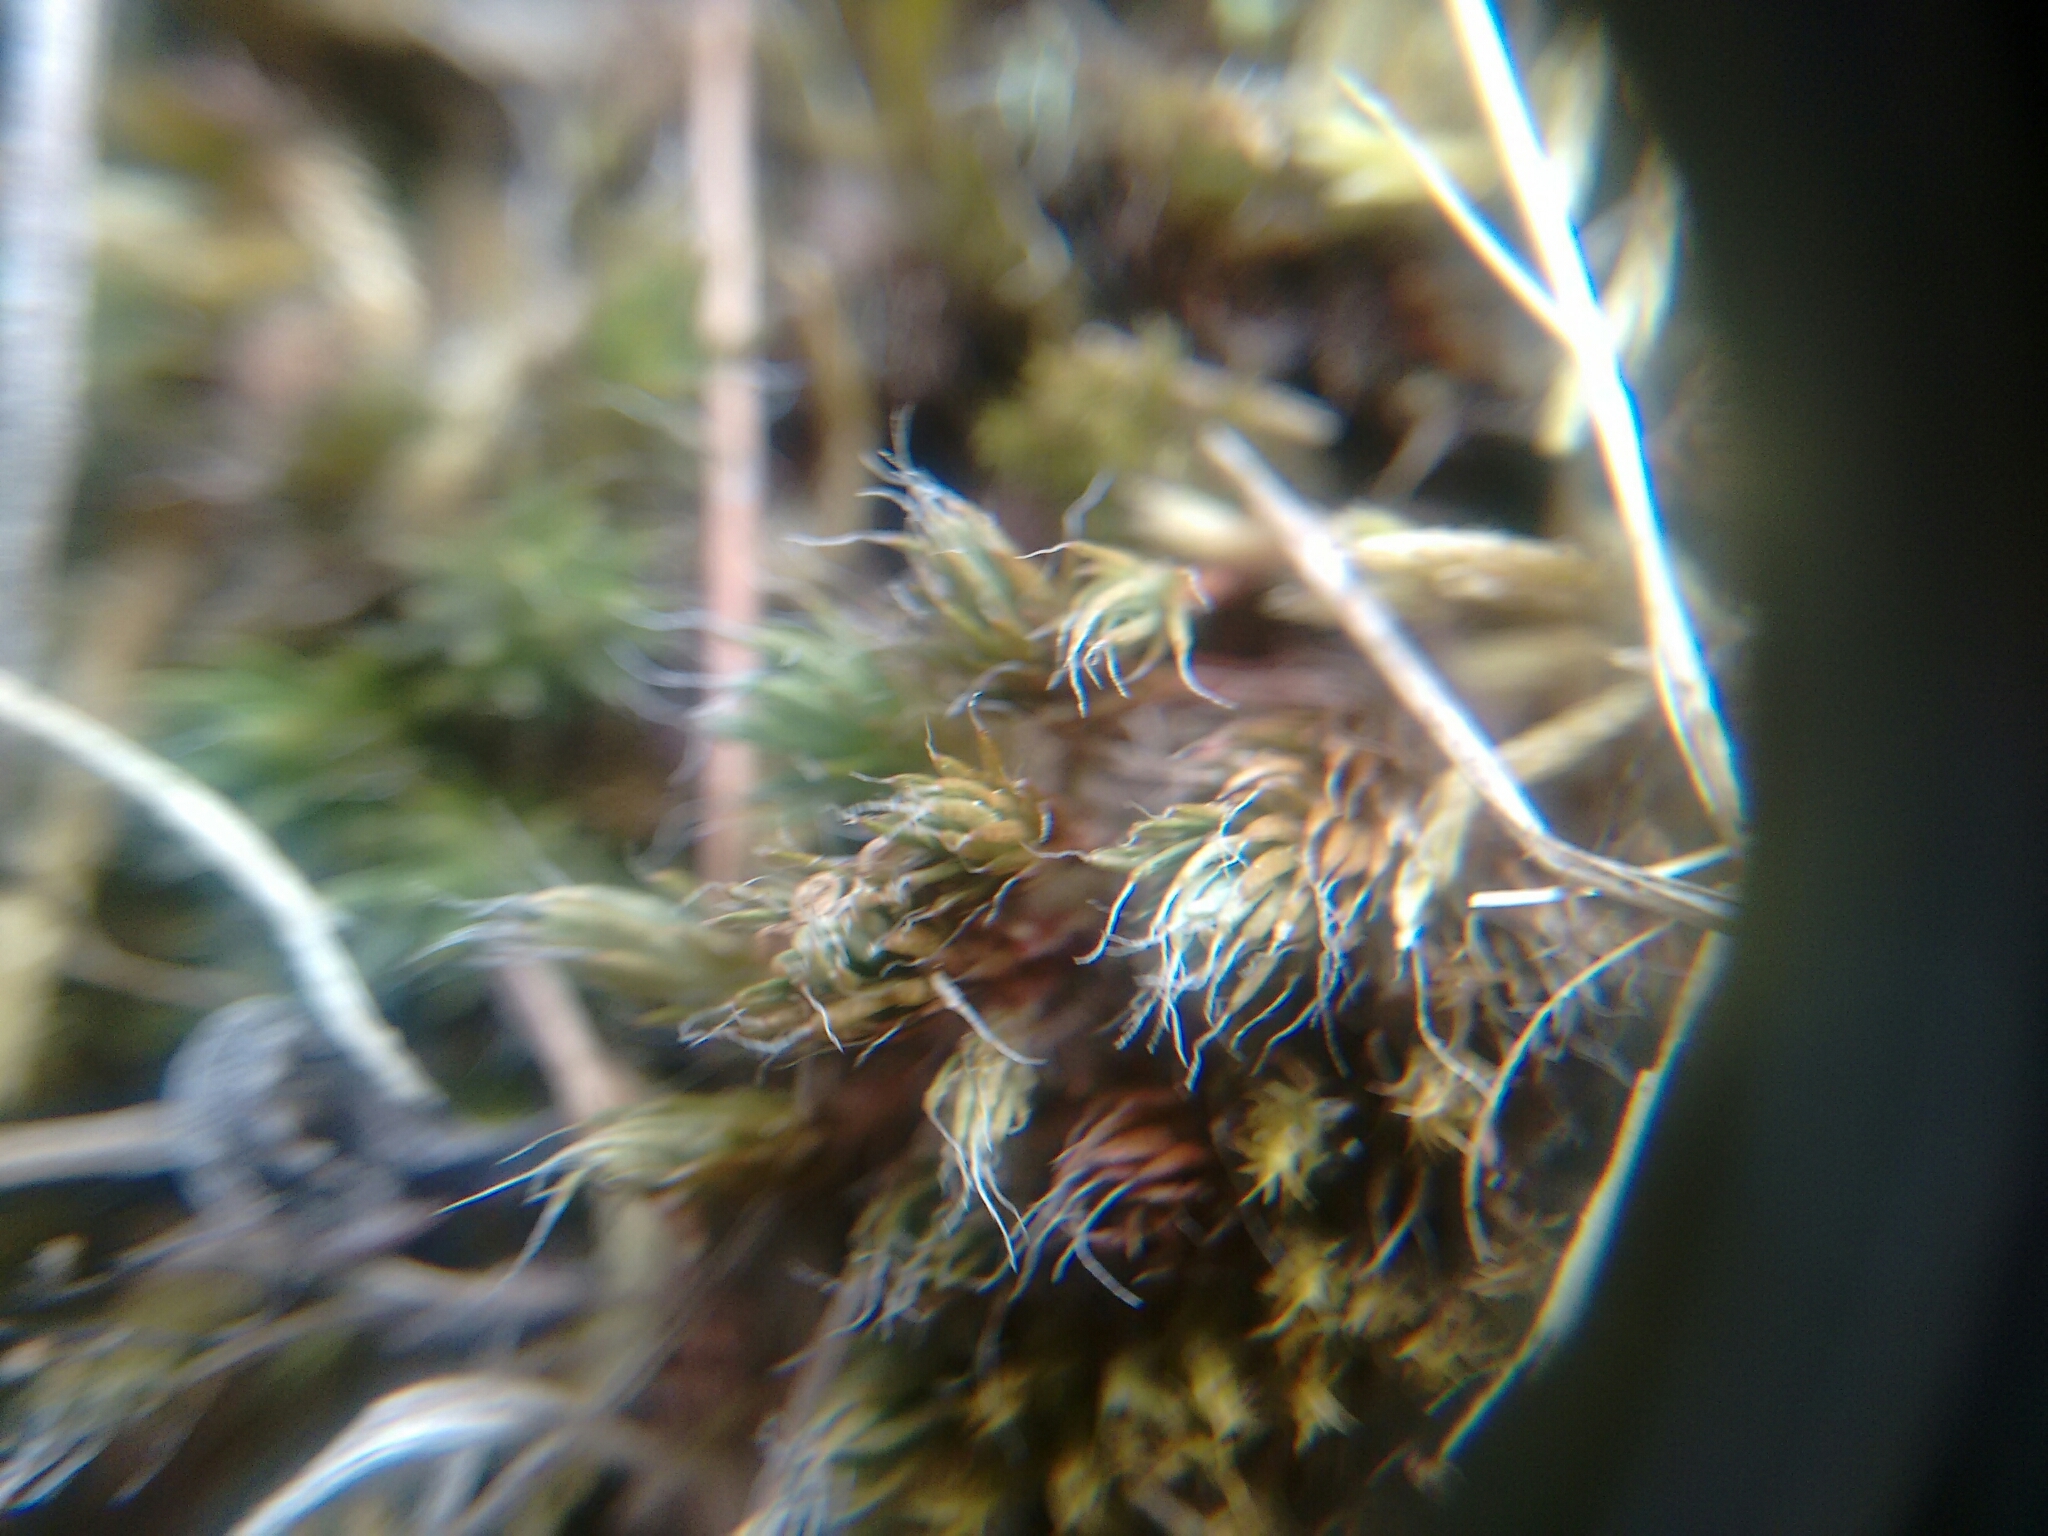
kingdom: Plantae
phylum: Bryophyta
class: Polytrichopsida
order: Polytrichales
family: Polytrichaceae
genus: Polytrichum
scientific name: Polytrichum piliferum
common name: Bristly haircap
